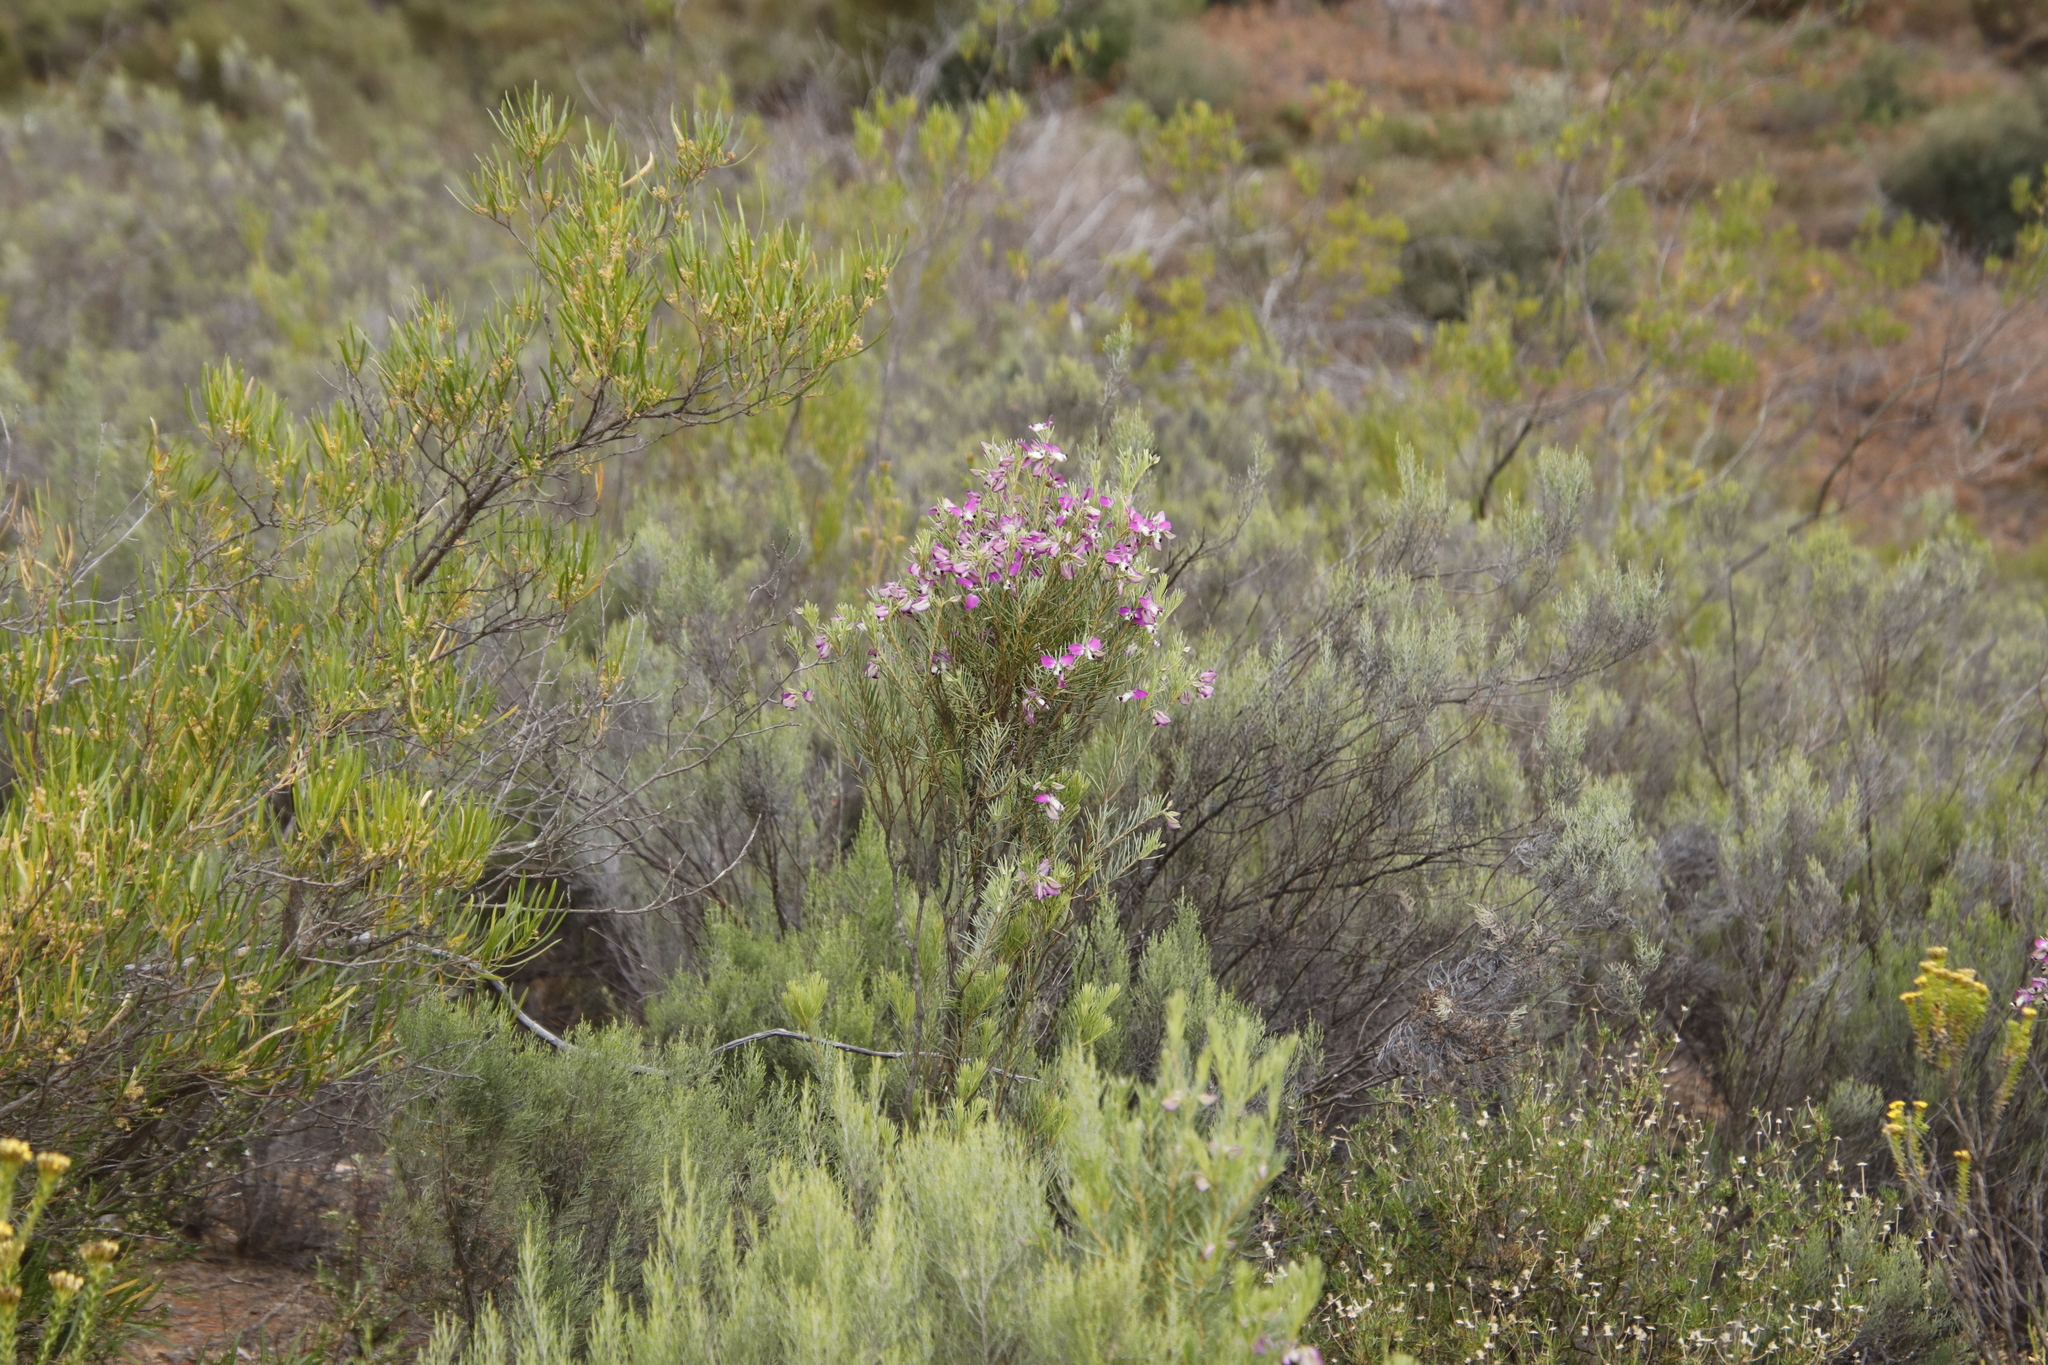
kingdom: Plantae
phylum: Tracheophyta
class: Magnoliopsida
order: Fabales
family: Polygalaceae
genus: Polygala
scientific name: Polygala myrtifolia
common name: Myrtle-leaf milkwort
